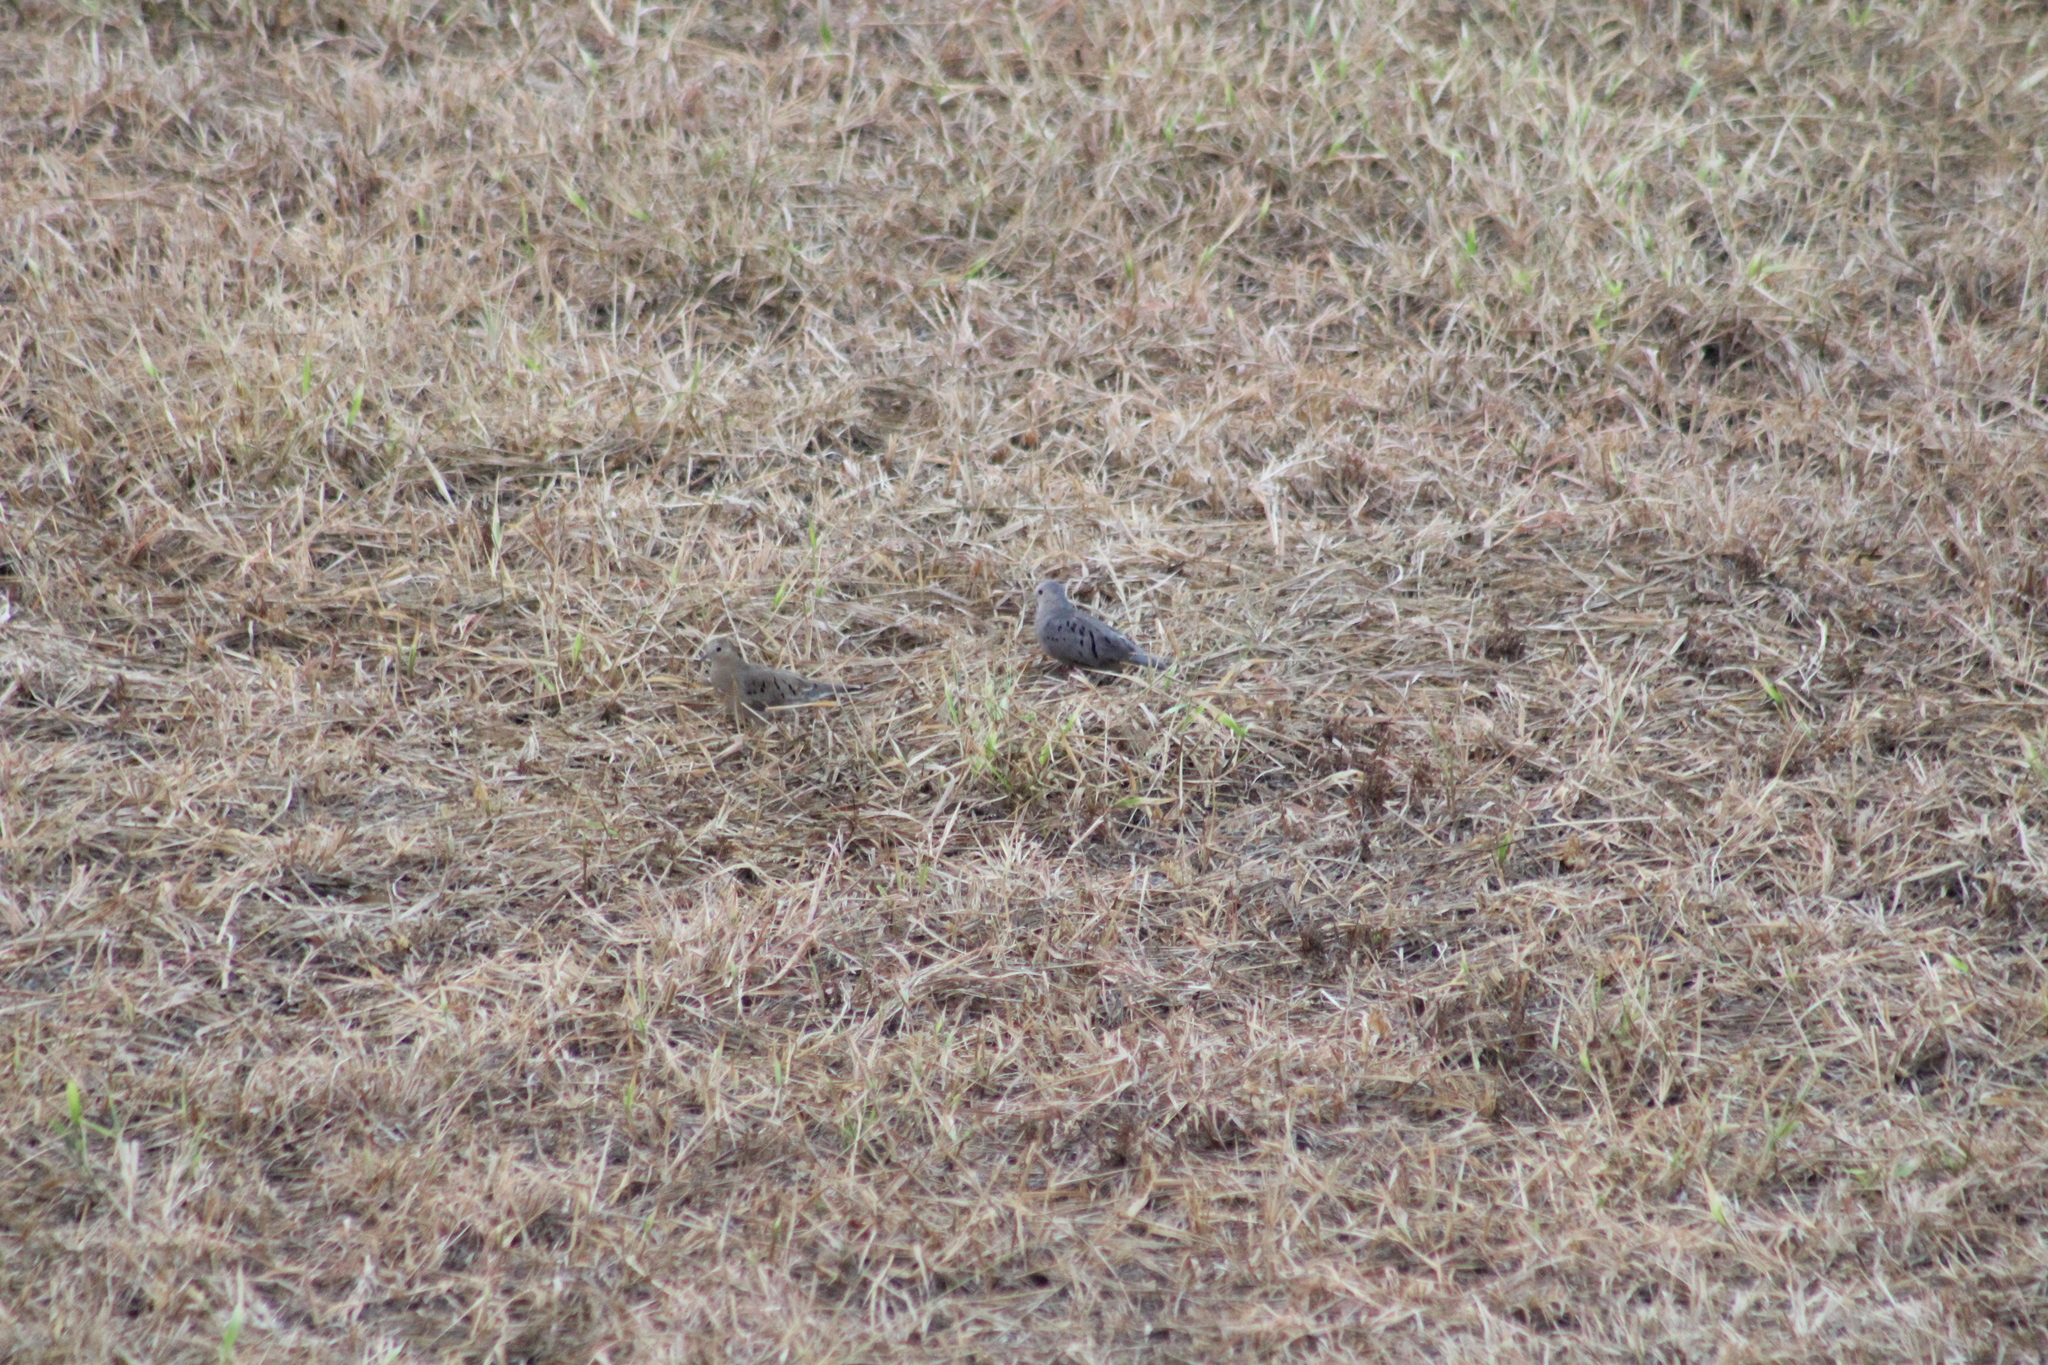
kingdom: Animalia
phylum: Chordata
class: Aves
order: Columbiformes
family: Columbidae
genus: Columbina
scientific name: Columbina buckleyi
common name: Ecuadorian ground dove
